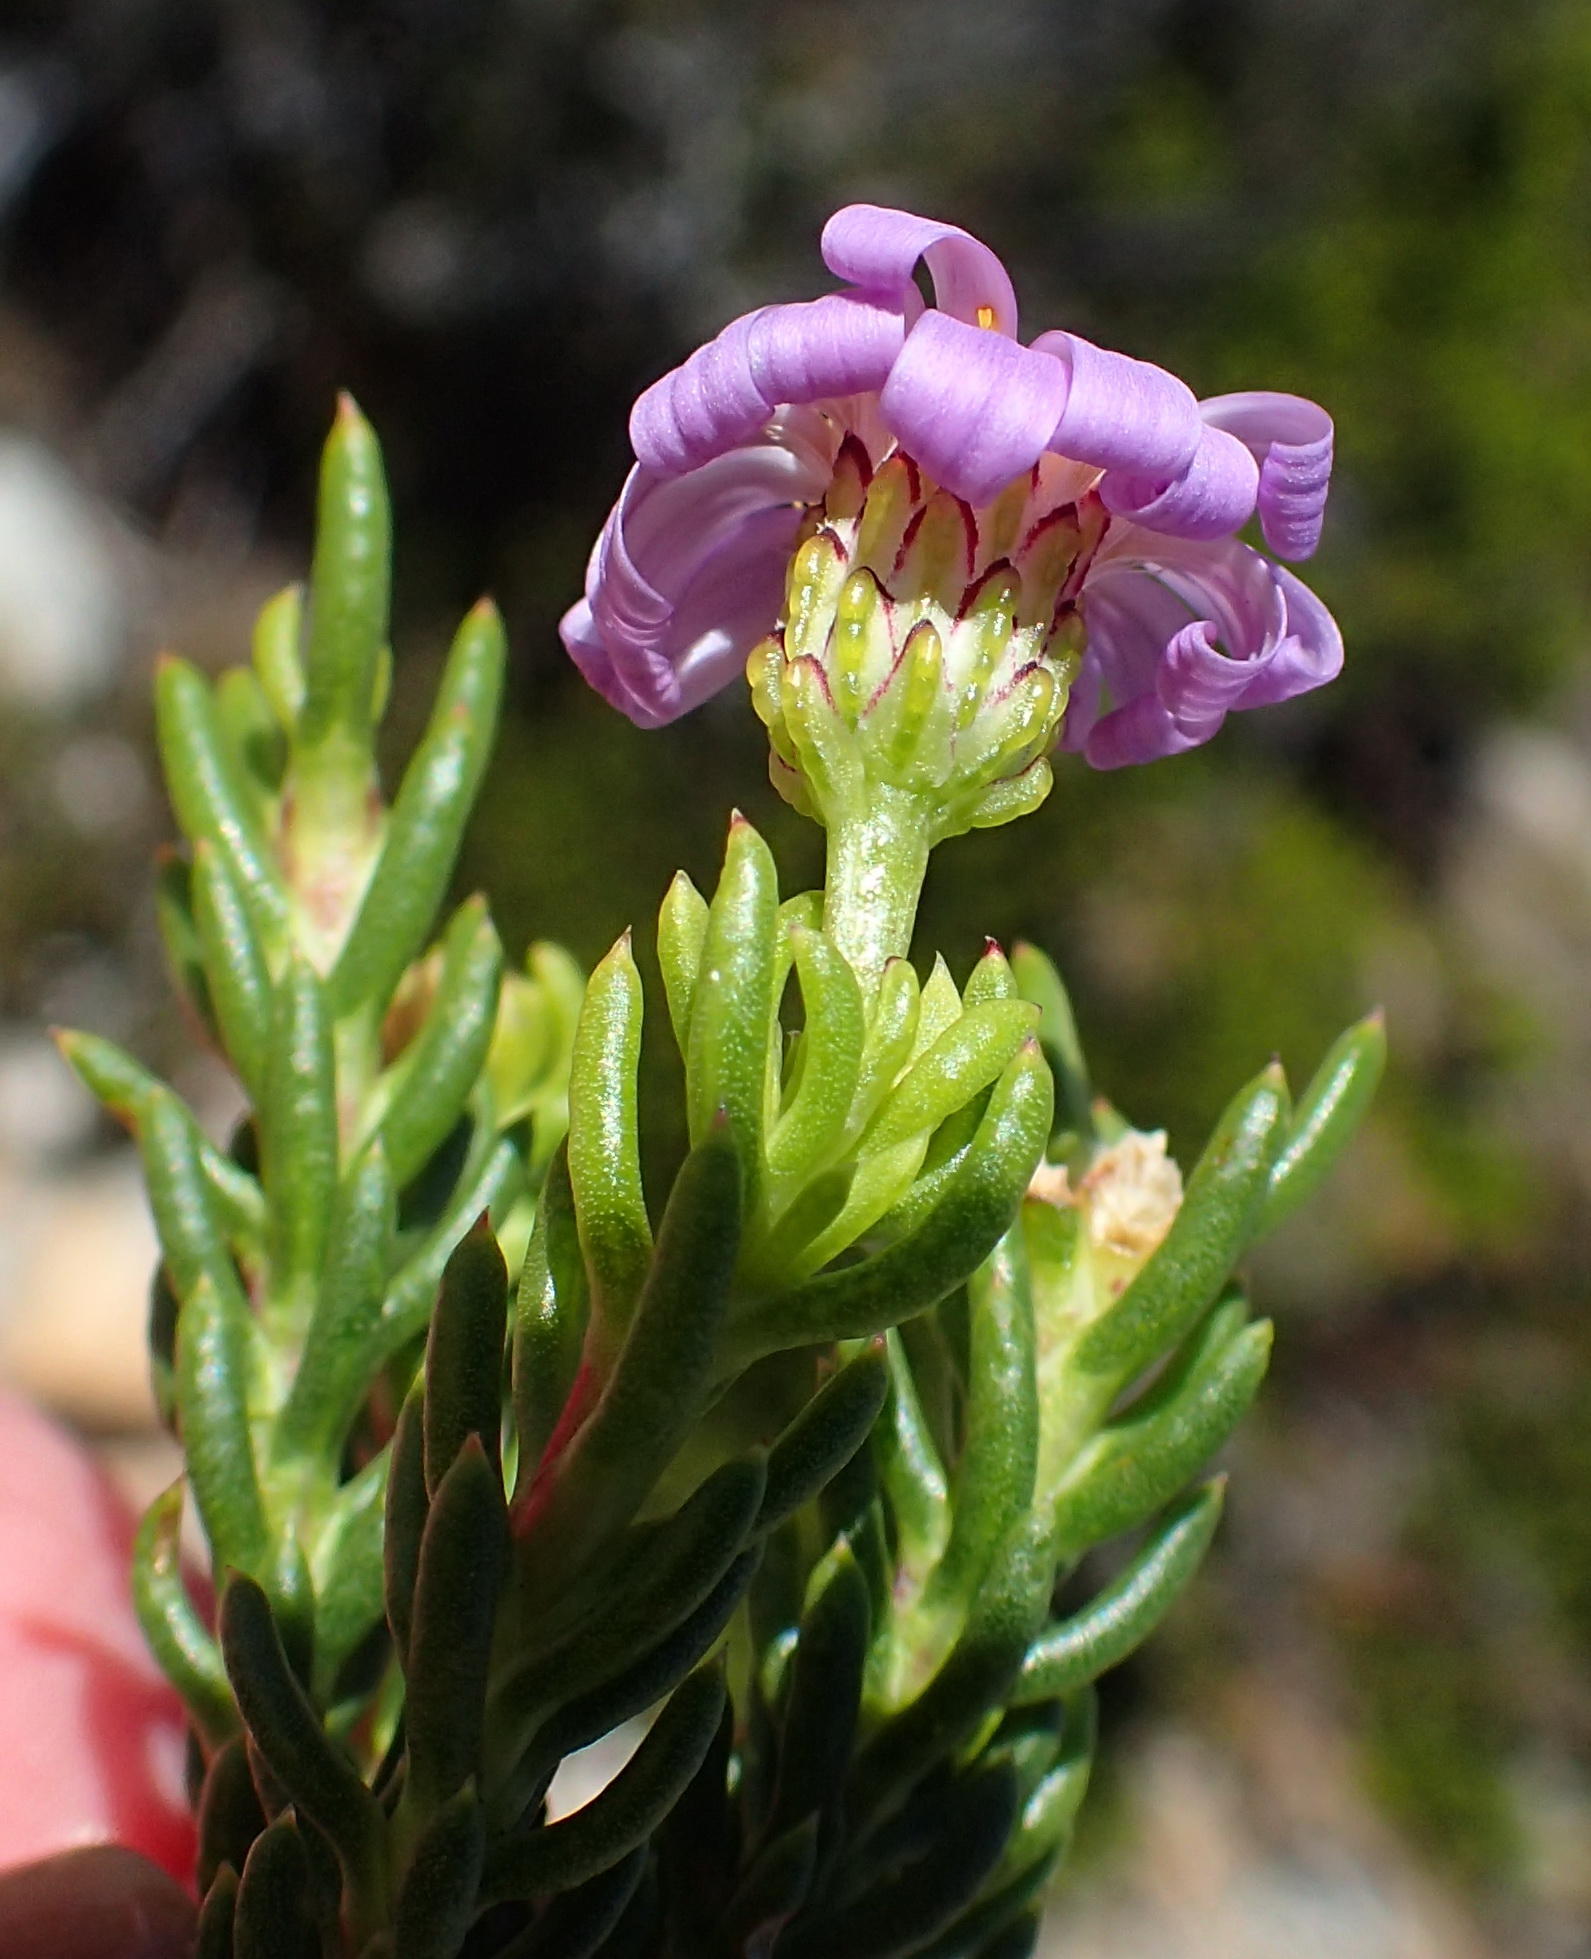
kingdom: Plantae
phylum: Tracheophyta
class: Magnoliopsida
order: Asterales
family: Asteraceae
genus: Felicia
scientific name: Felicia oleosa
